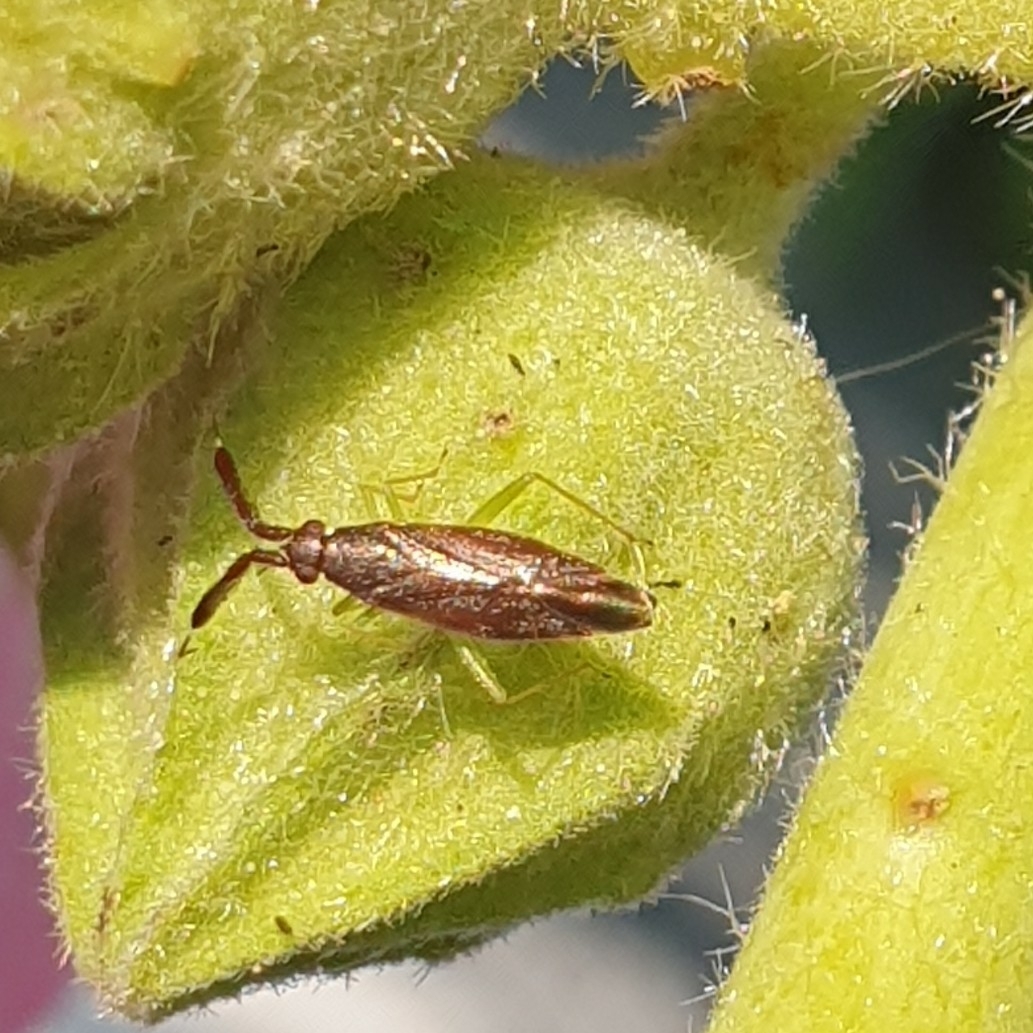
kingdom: Animalia
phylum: Arthropoda
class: Insecta
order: Hemiptera
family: Miridae
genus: Heterotoma
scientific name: Heterotoma planicornis
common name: Plant bug
